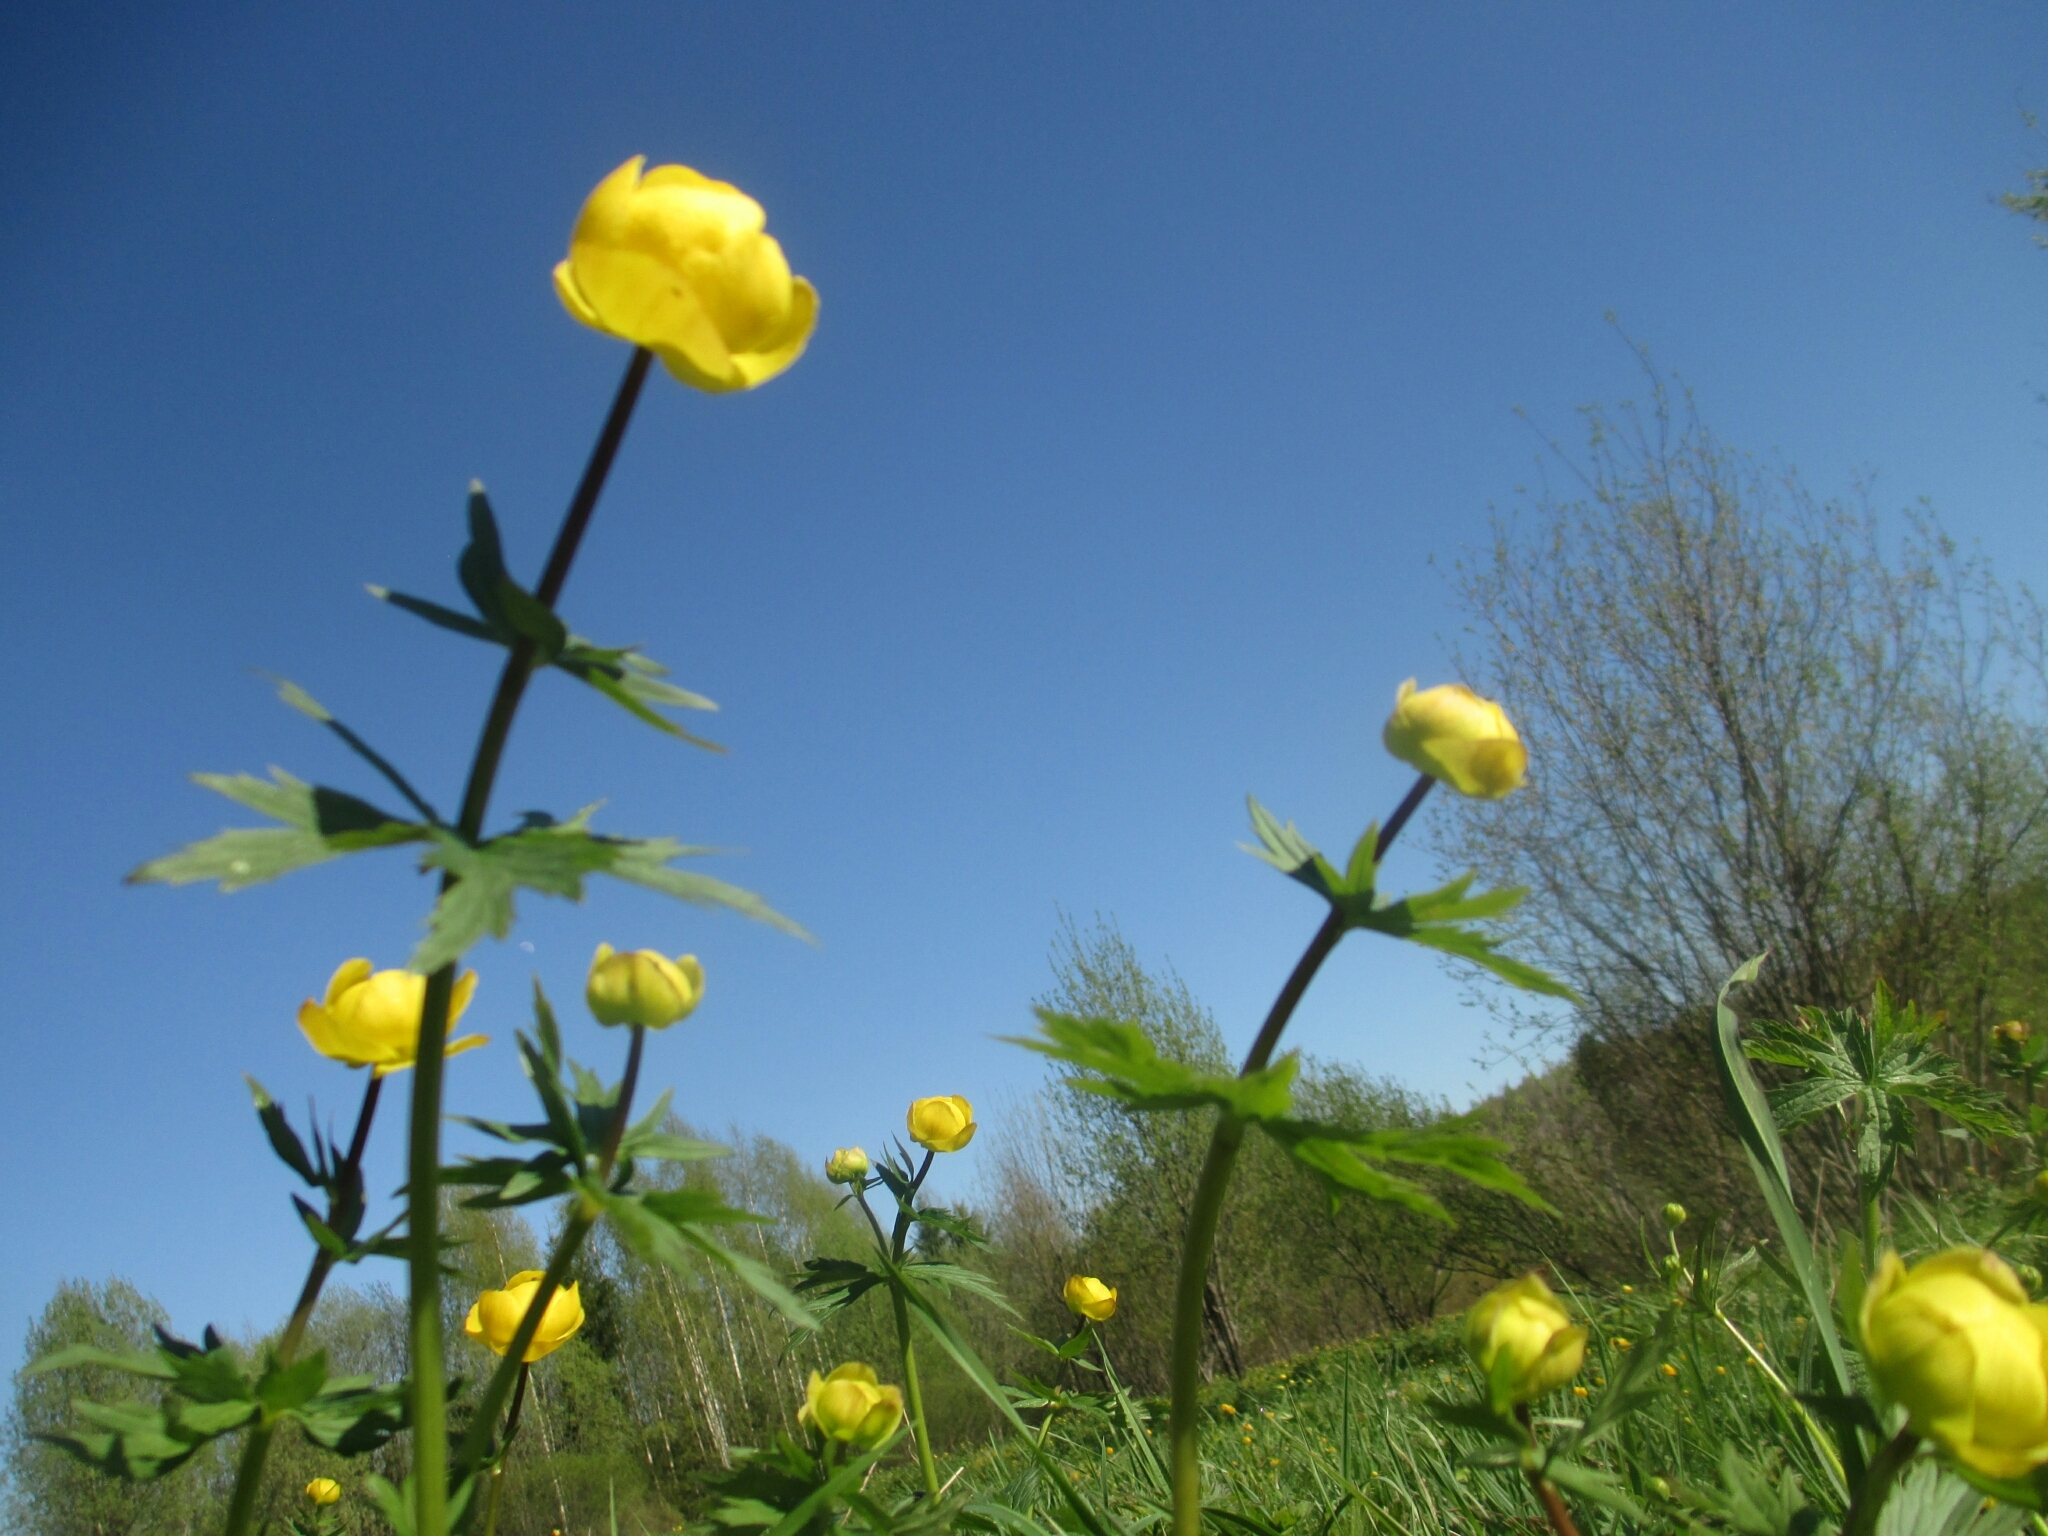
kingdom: Plantae
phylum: Tracheophyta
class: Magnoliopsida
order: Ranunculales
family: Ranunculaceae
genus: Trollius
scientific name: Trollius europaeus
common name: European globeflower
